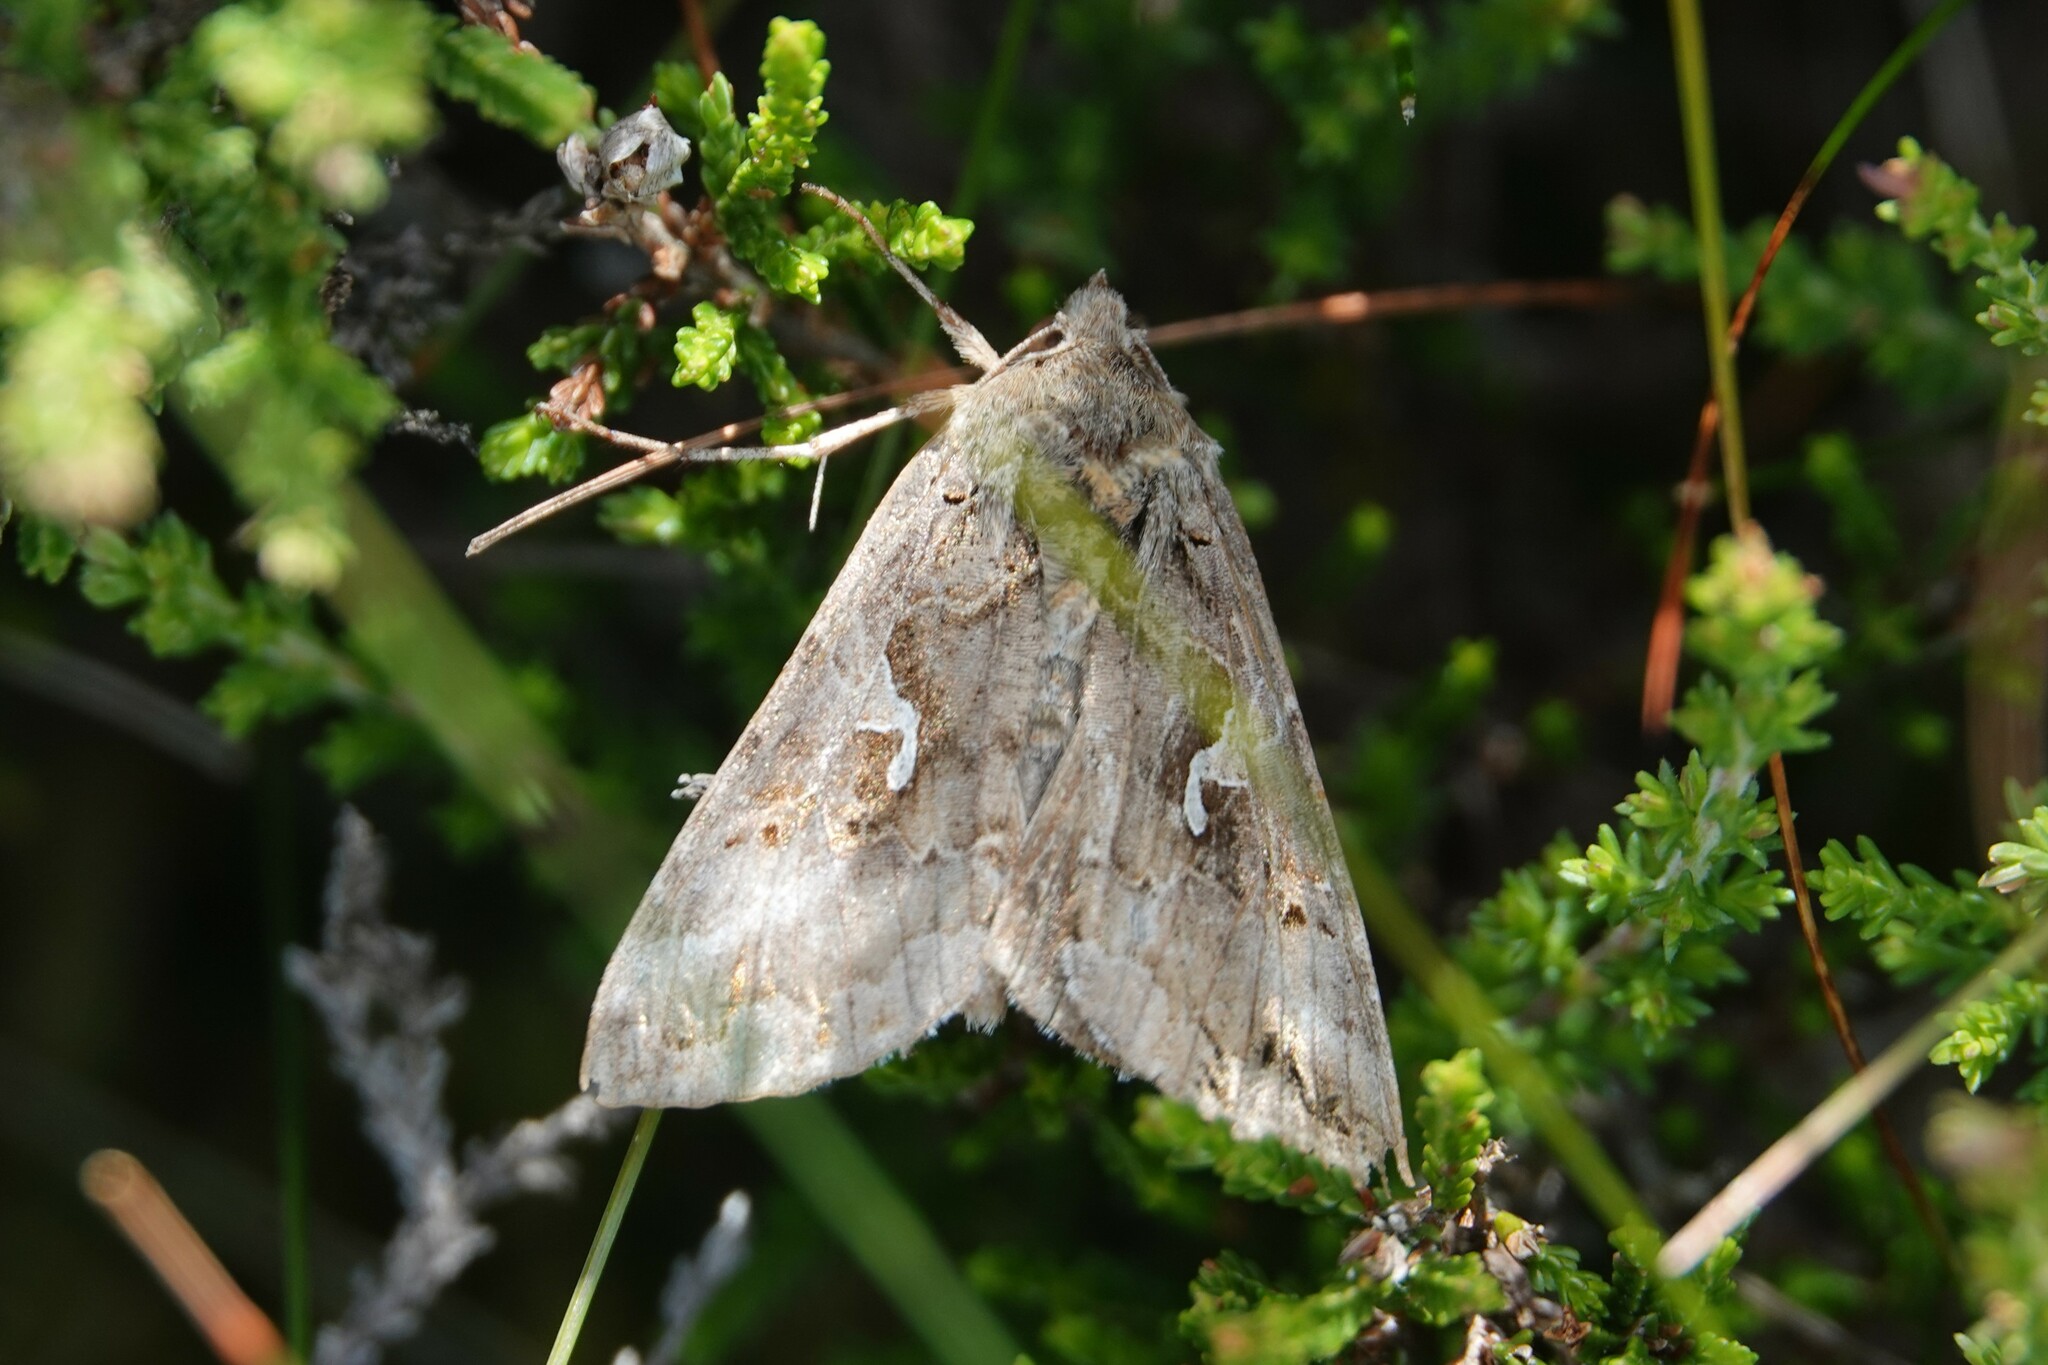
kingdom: Animalia
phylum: Arthropoda
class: Insecta
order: Lepidoptera
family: Noctuidae
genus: Autographa
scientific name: Autographa gamma
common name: Silver y
